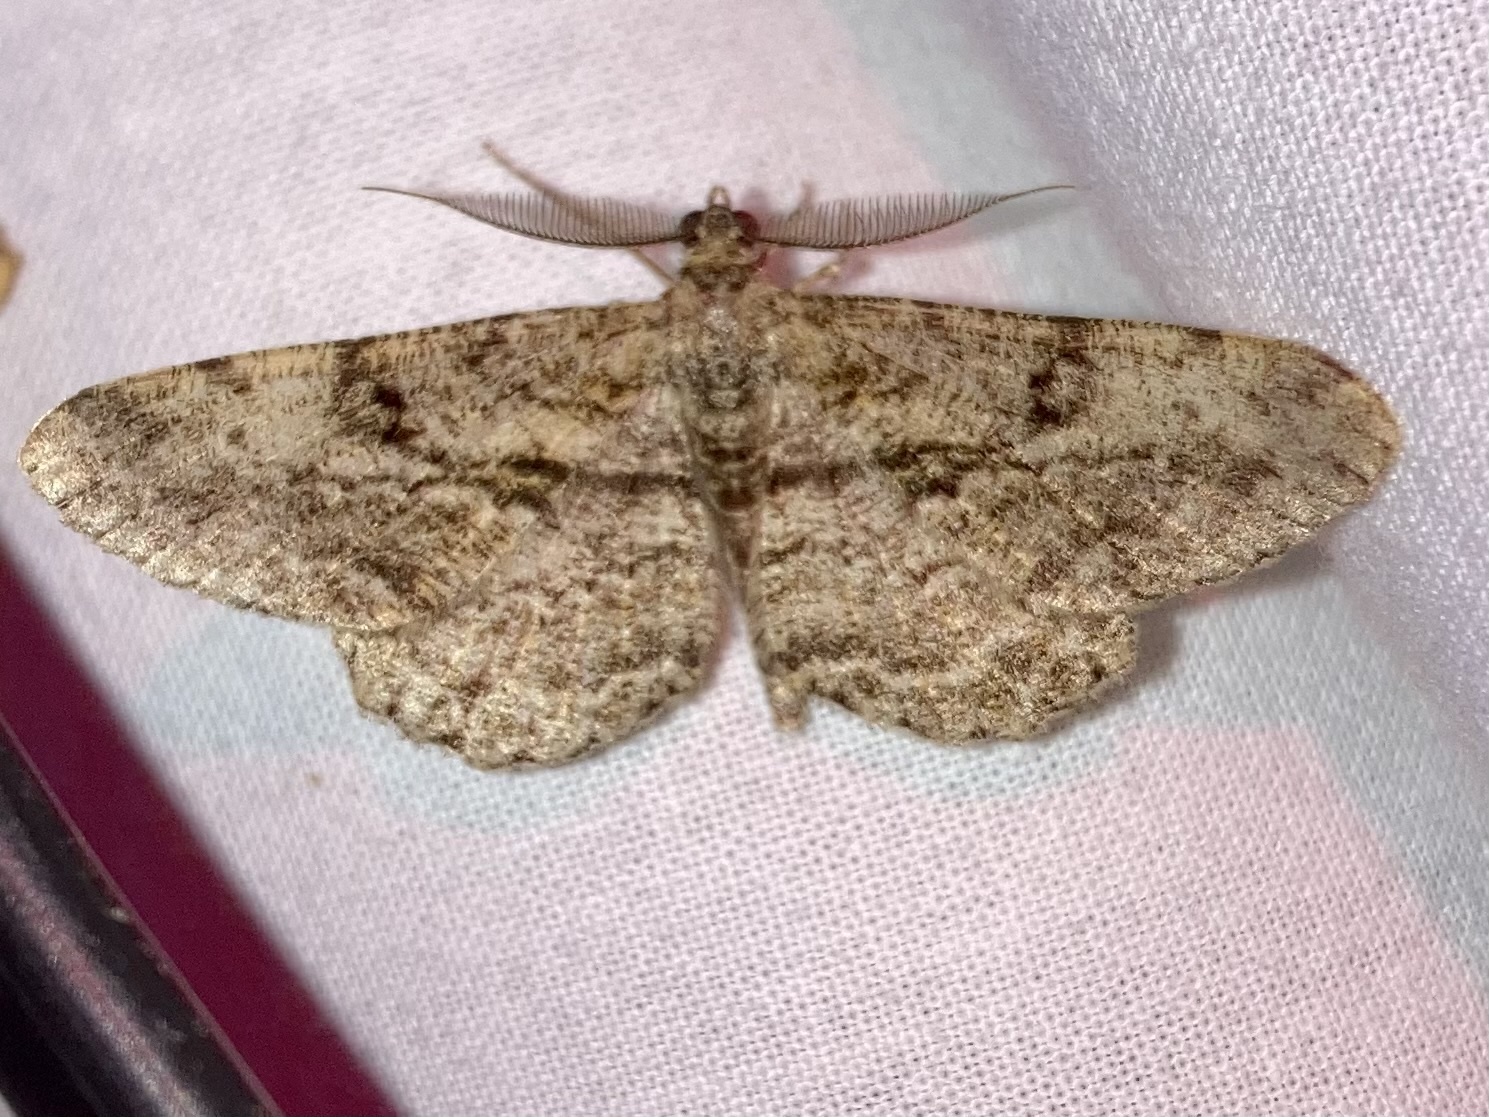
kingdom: Animalia
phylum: Arthropoda
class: Insecta
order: Lepidoptera
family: Geometridae
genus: Peribatodes
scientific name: Peribatodes rhomboidaria
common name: Willow beauty
